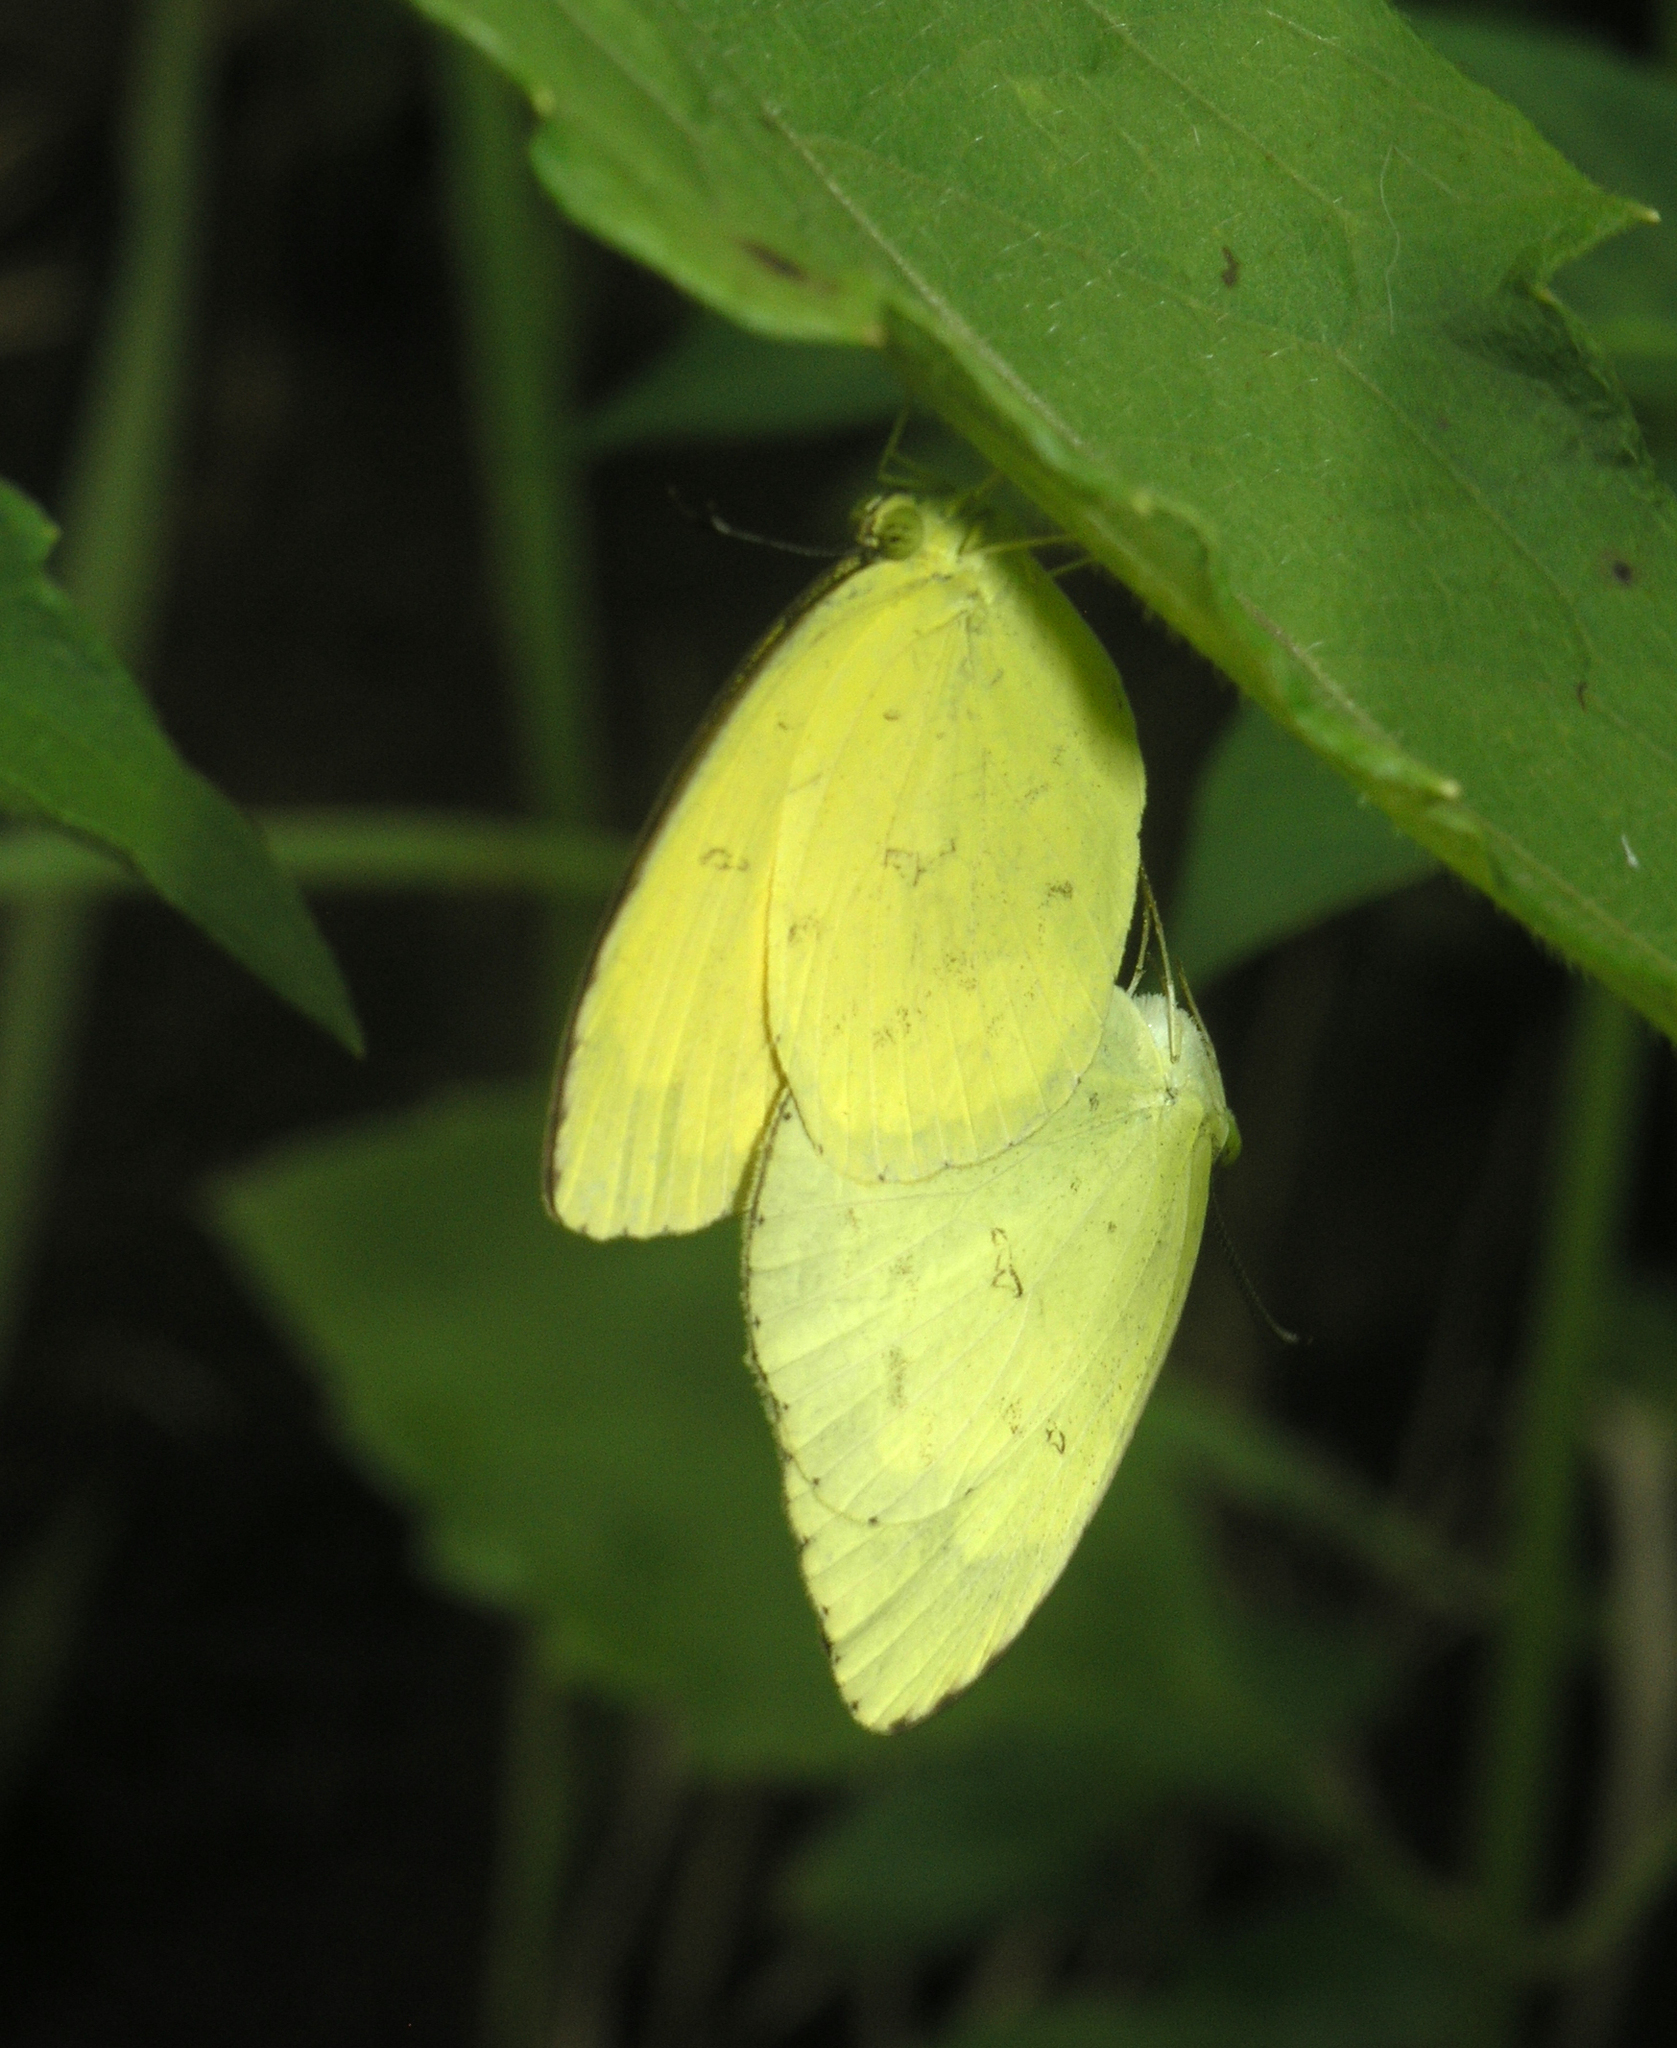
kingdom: Animalia
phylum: Arthropoda
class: Insecta
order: Lepidoptera
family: Pieridae
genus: Eurema
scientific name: Eurema hecabe
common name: Pale grass yellow
